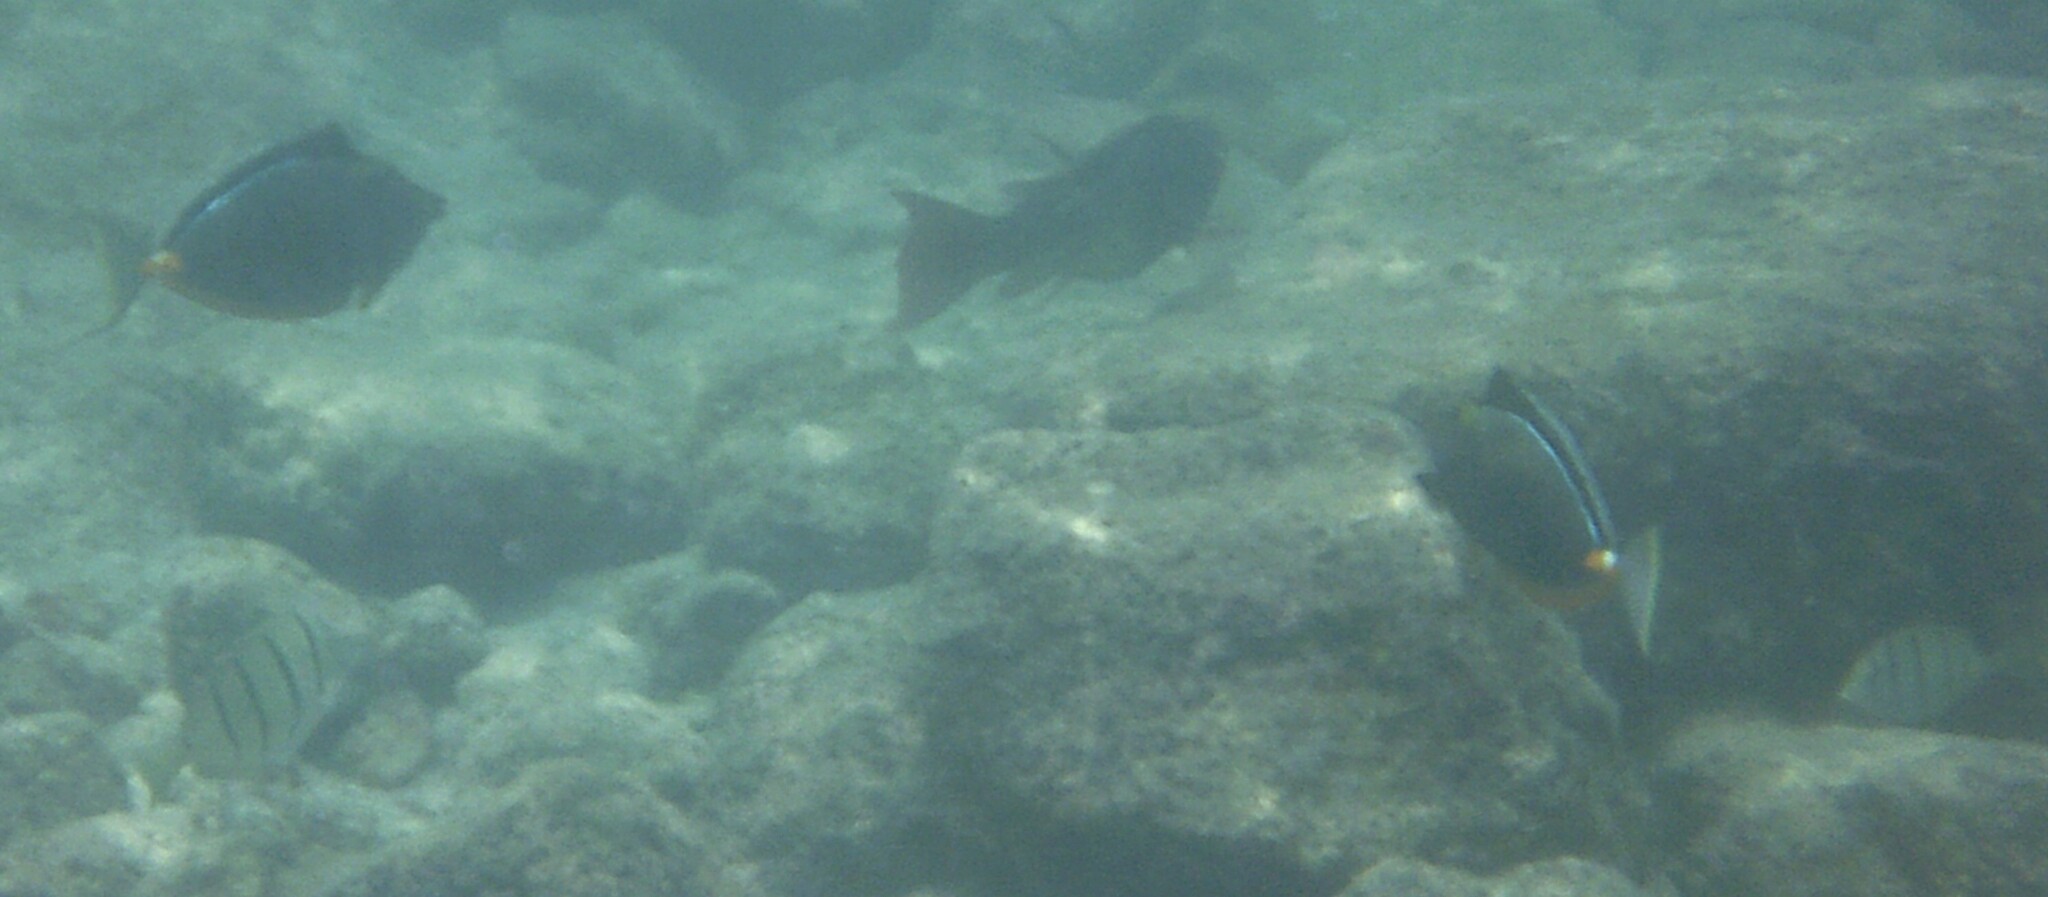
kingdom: Animalia
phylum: Chordata
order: Perciformes
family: Acanthuridae
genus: Naso
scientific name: Naso lituratus
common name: Orangespine unicornfish
